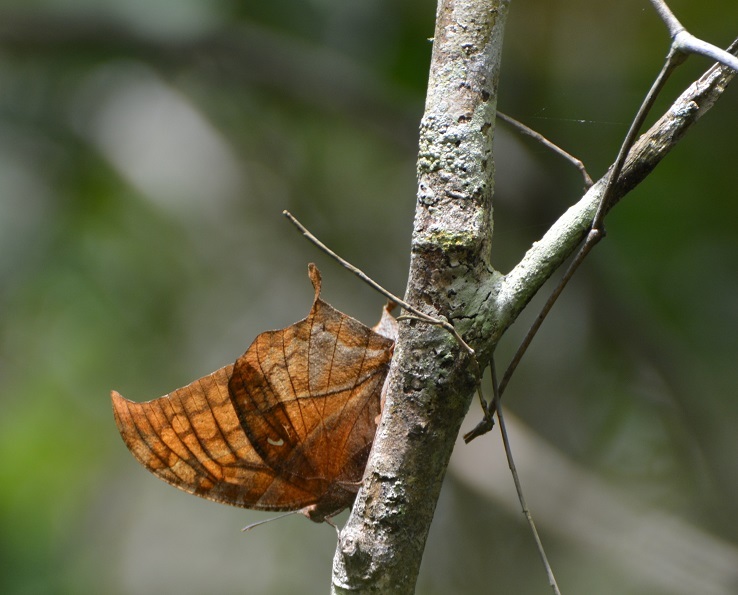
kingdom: Animalia
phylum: Arthropoda
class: Insecta
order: Lepidoptera
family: Nymphalidae
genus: Consul
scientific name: Consul excellens
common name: Black-veined leafwing
